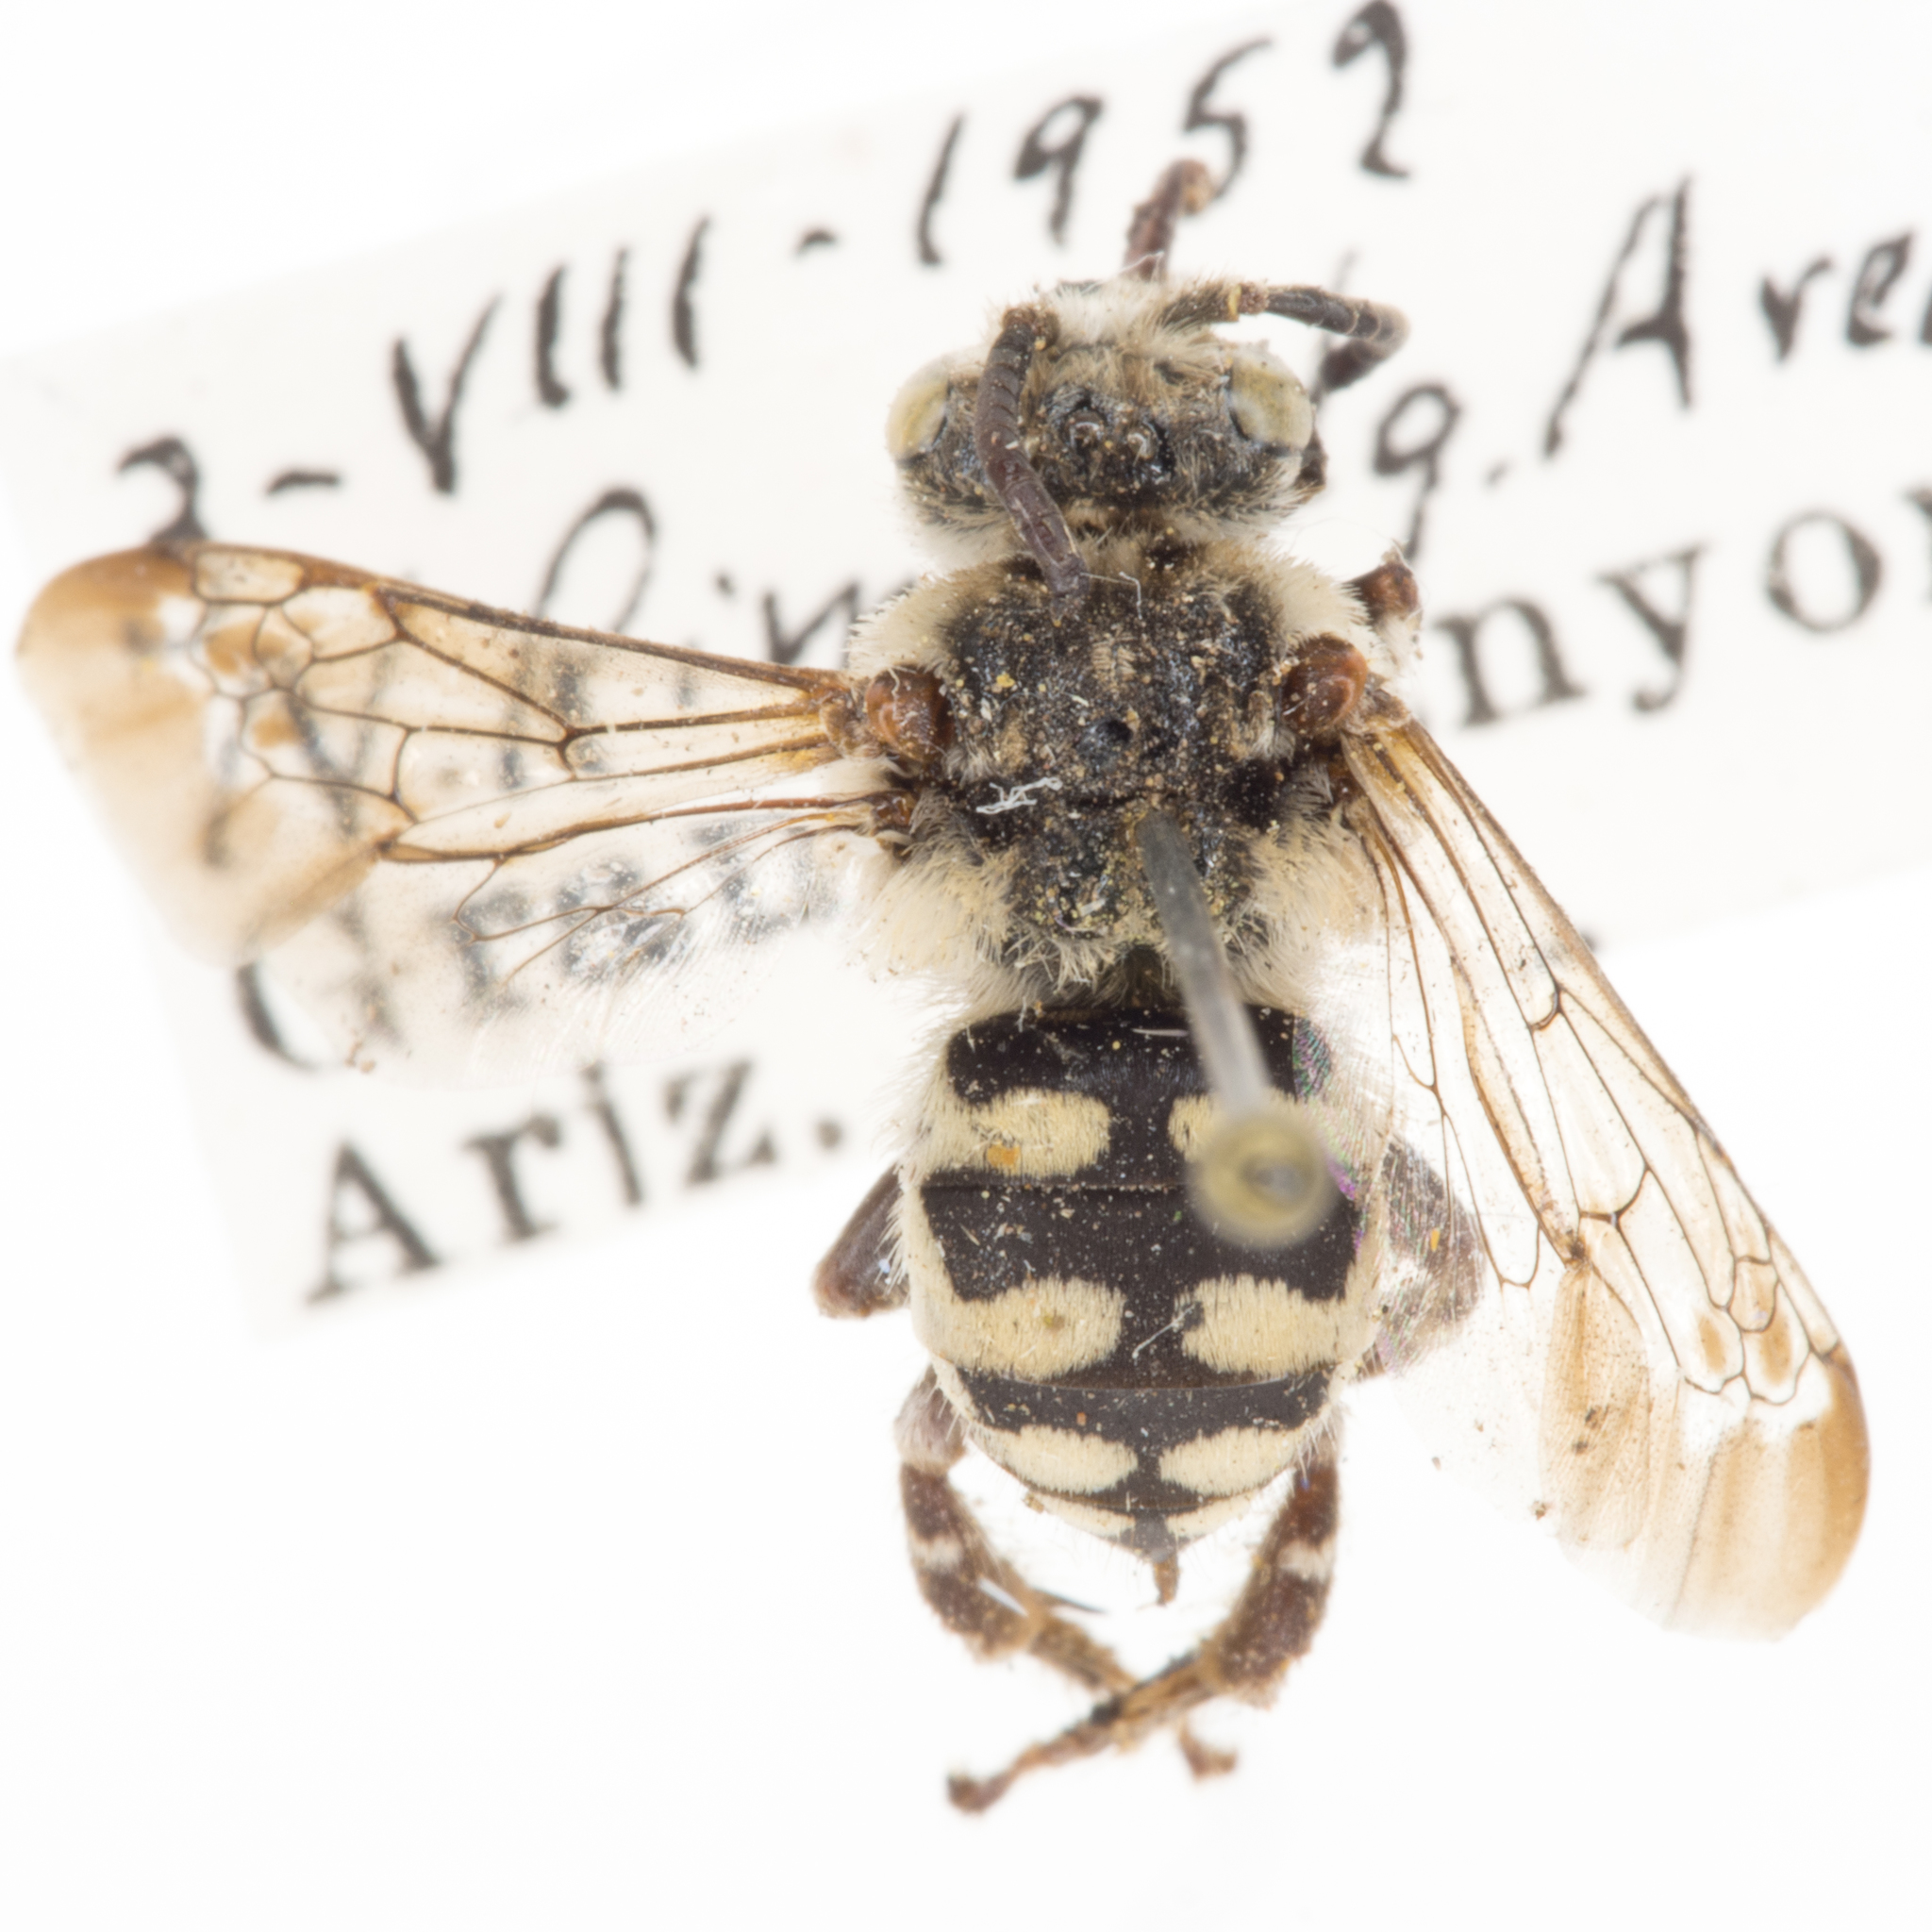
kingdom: Animalia
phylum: Arthropoda
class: Insecta
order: Hymenoptera
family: Apidae
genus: Brachymelecta
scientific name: Brachymelecta californica
